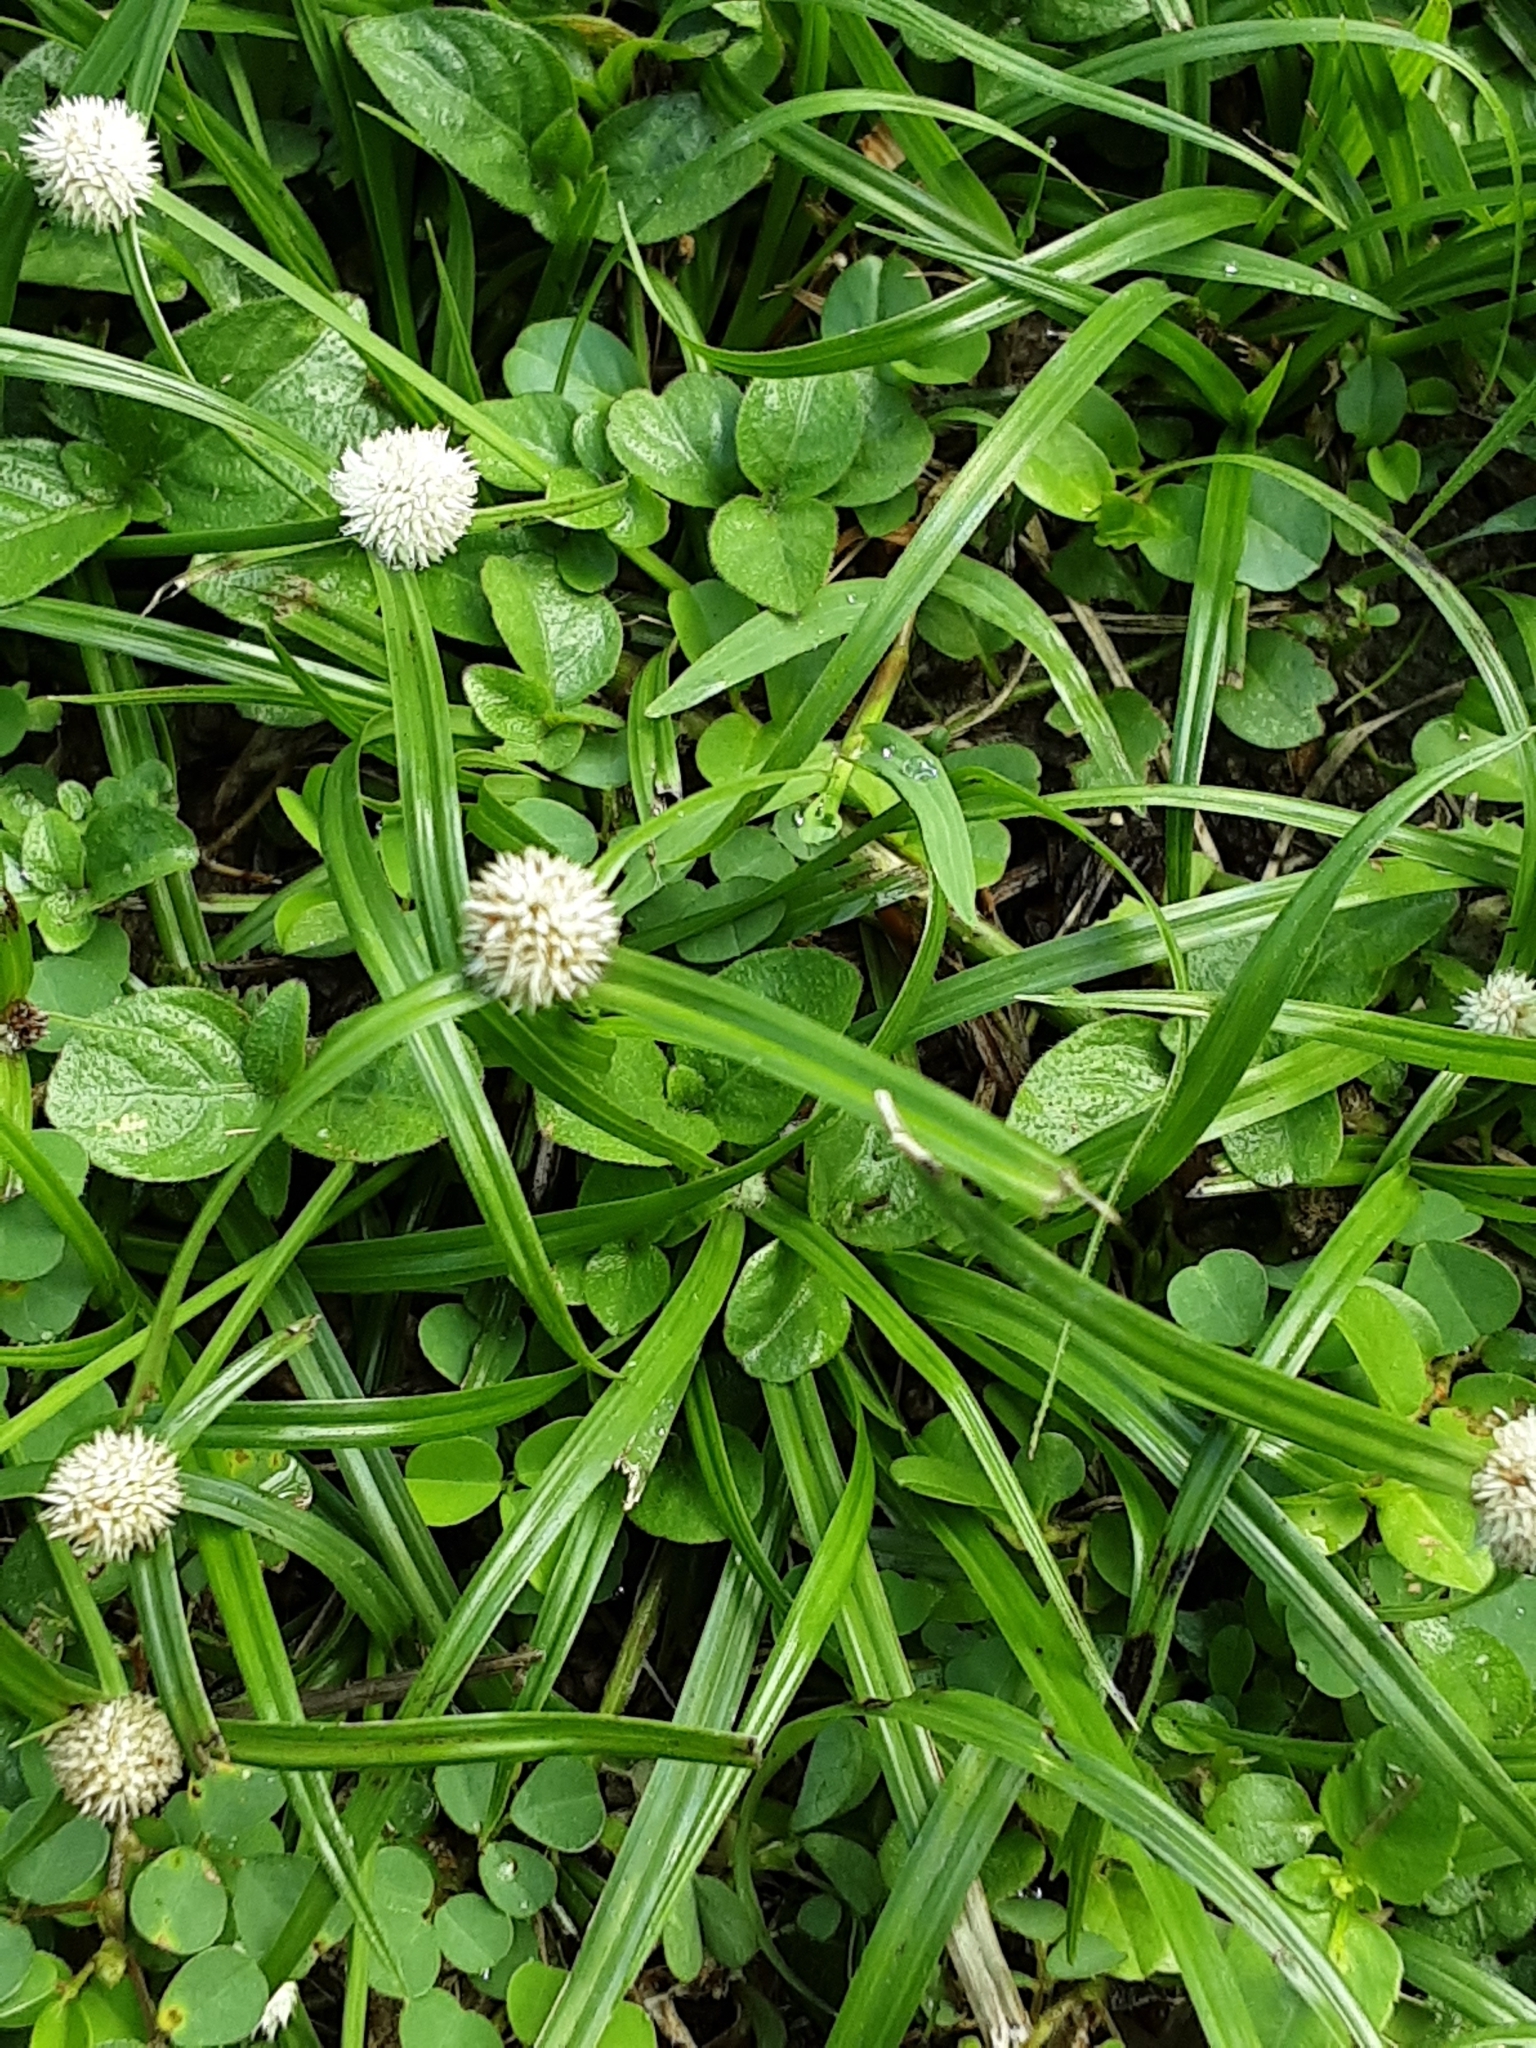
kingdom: Plantae
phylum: Tracheophyta
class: Liliopsida
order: Poales
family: Cyperaceae
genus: Cyperus
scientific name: Cyperus mindorensis
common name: Flatsedge
